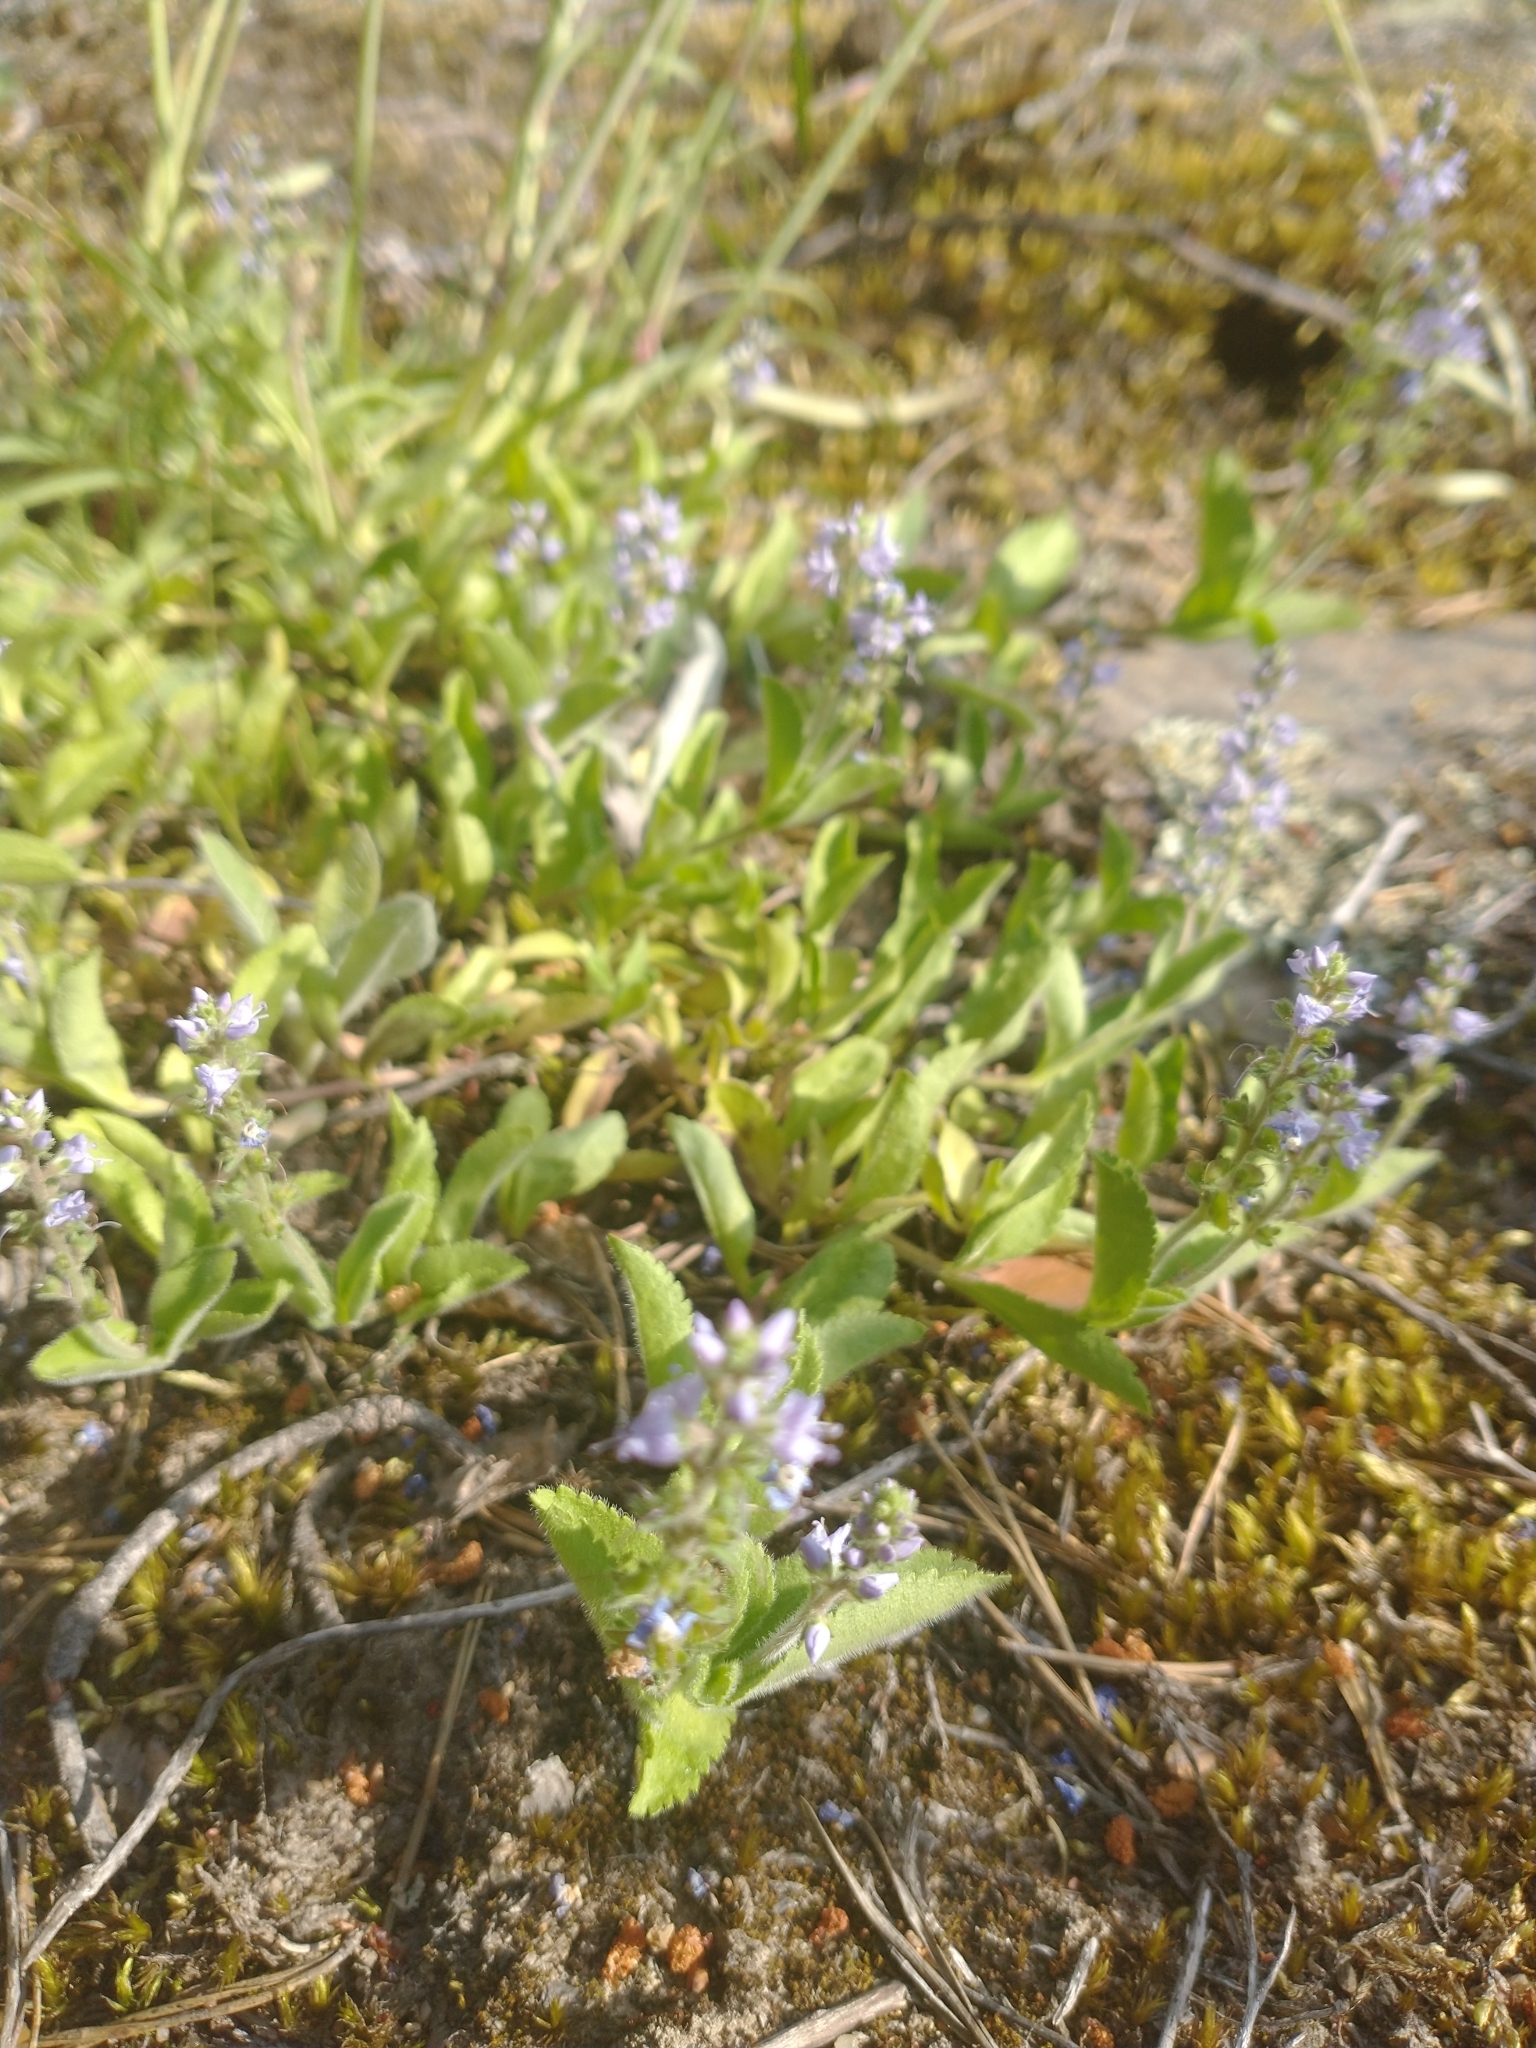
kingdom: Plantae
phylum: Tracheophyta
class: Magnoliopsida
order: Lamiales
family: Plantaginaceae
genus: Veronica
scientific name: Veronica officinalis
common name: Common speedwell
